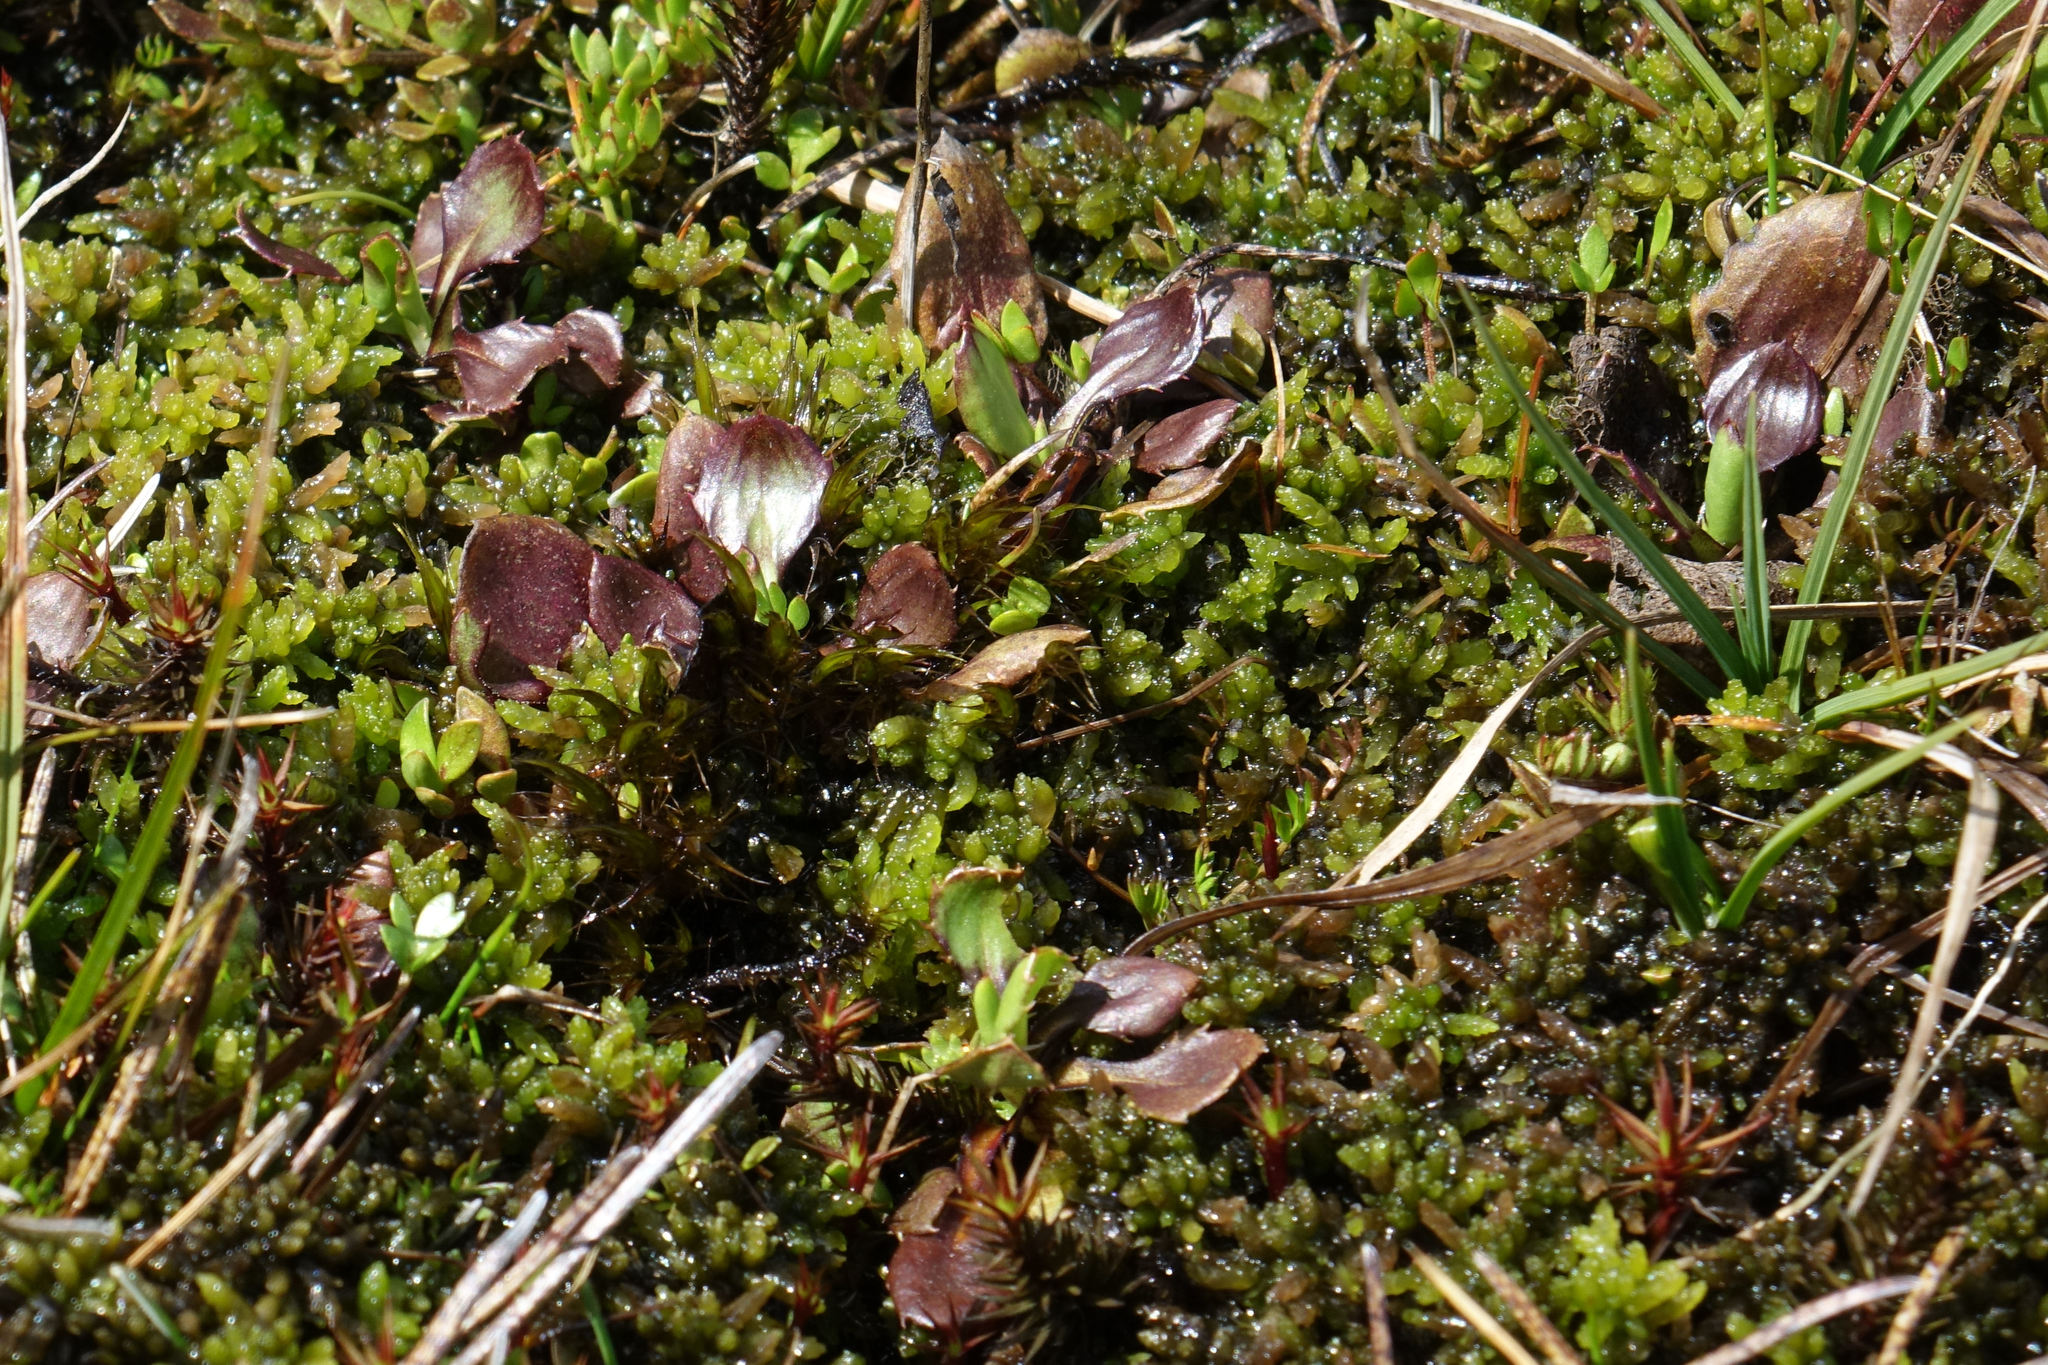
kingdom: Plantae
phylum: Tracheophyta
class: Magnoliopsida
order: Asterales
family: Asteraceae
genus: Celmisia
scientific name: Celmisia glandulosa
